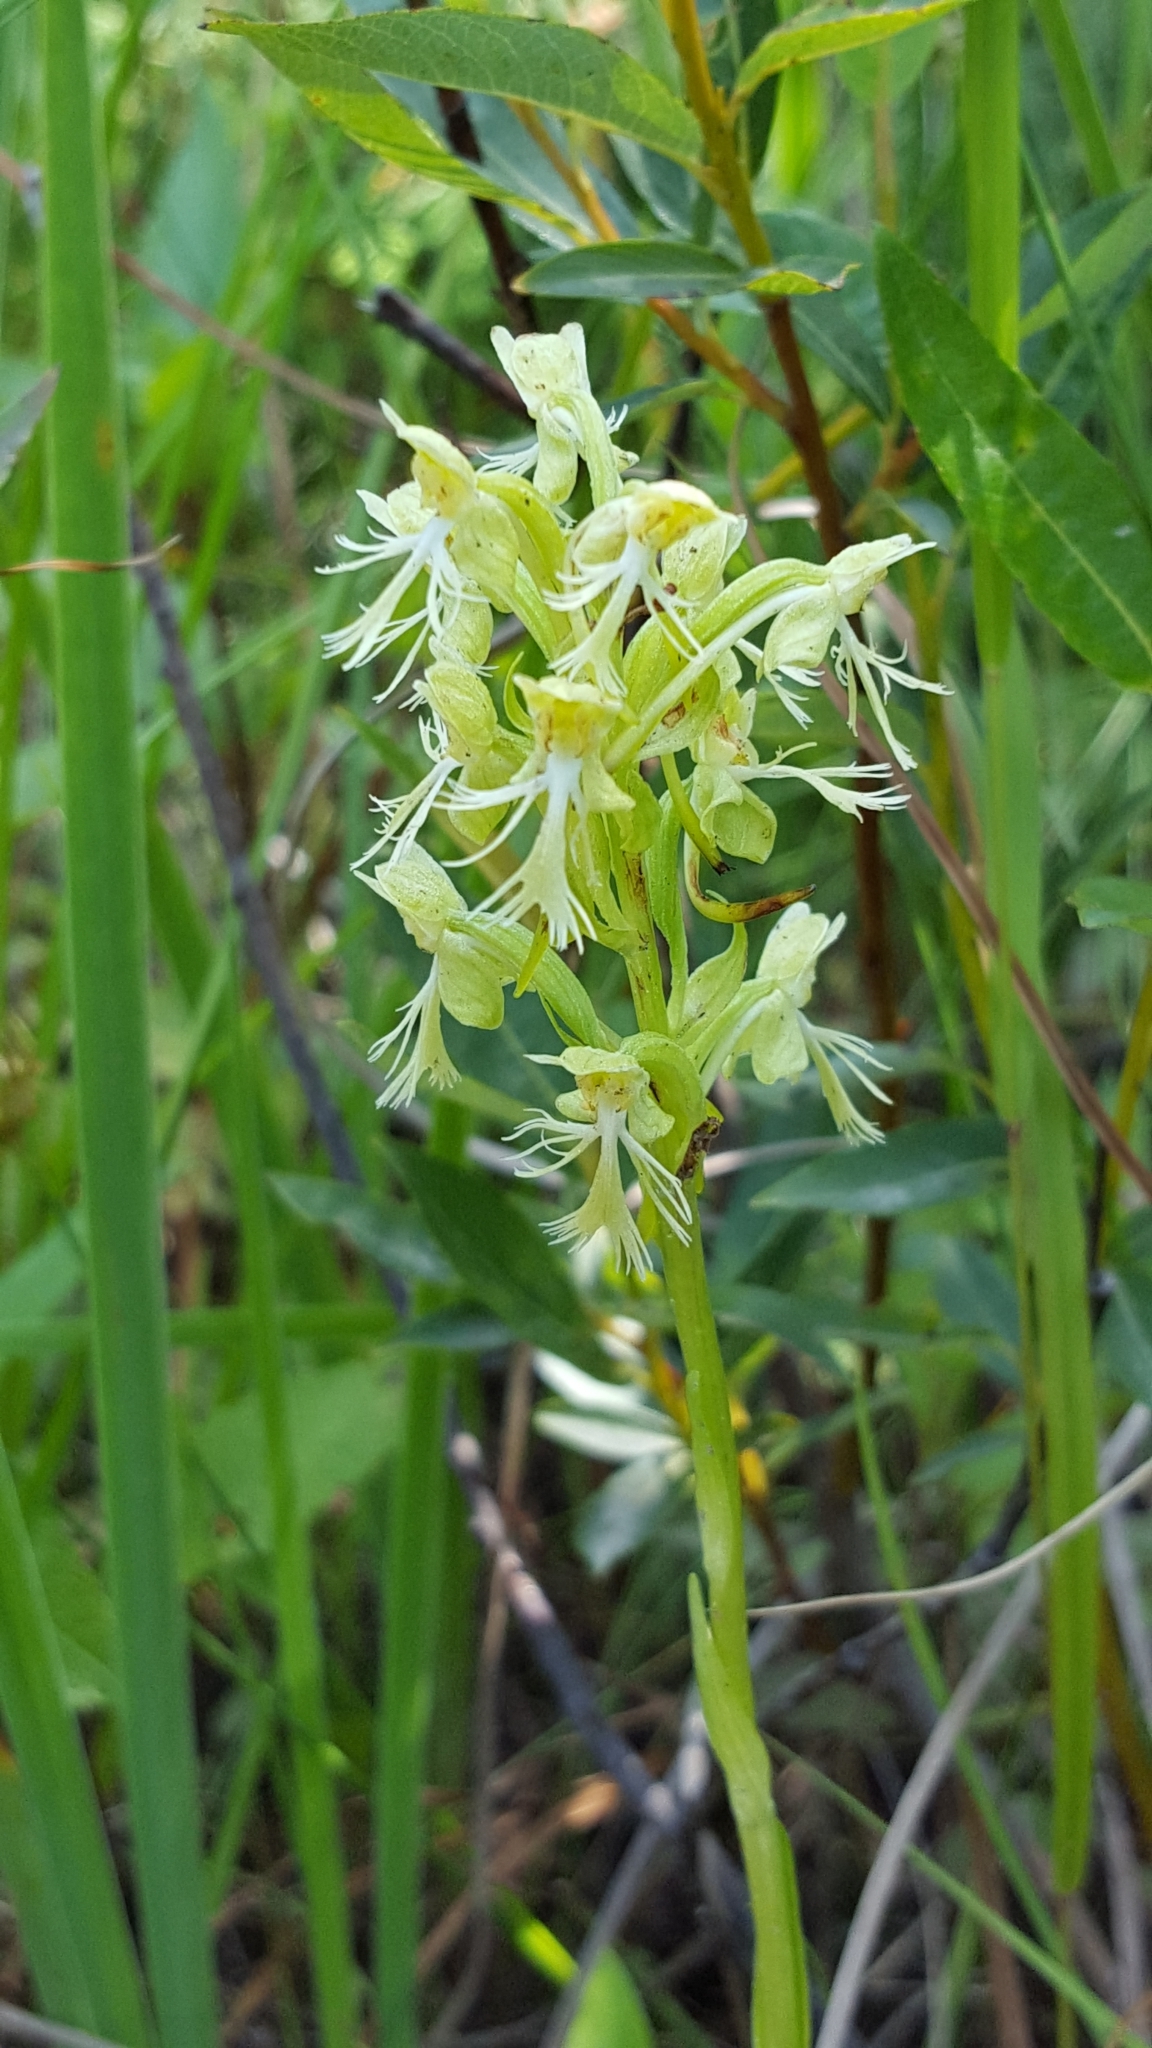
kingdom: Plantae
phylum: Tracheophyta
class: Liliopsida
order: Asparagales
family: Orchidaceae
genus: Platanthera
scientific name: Platanthera lacera
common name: Green fringed orchid
